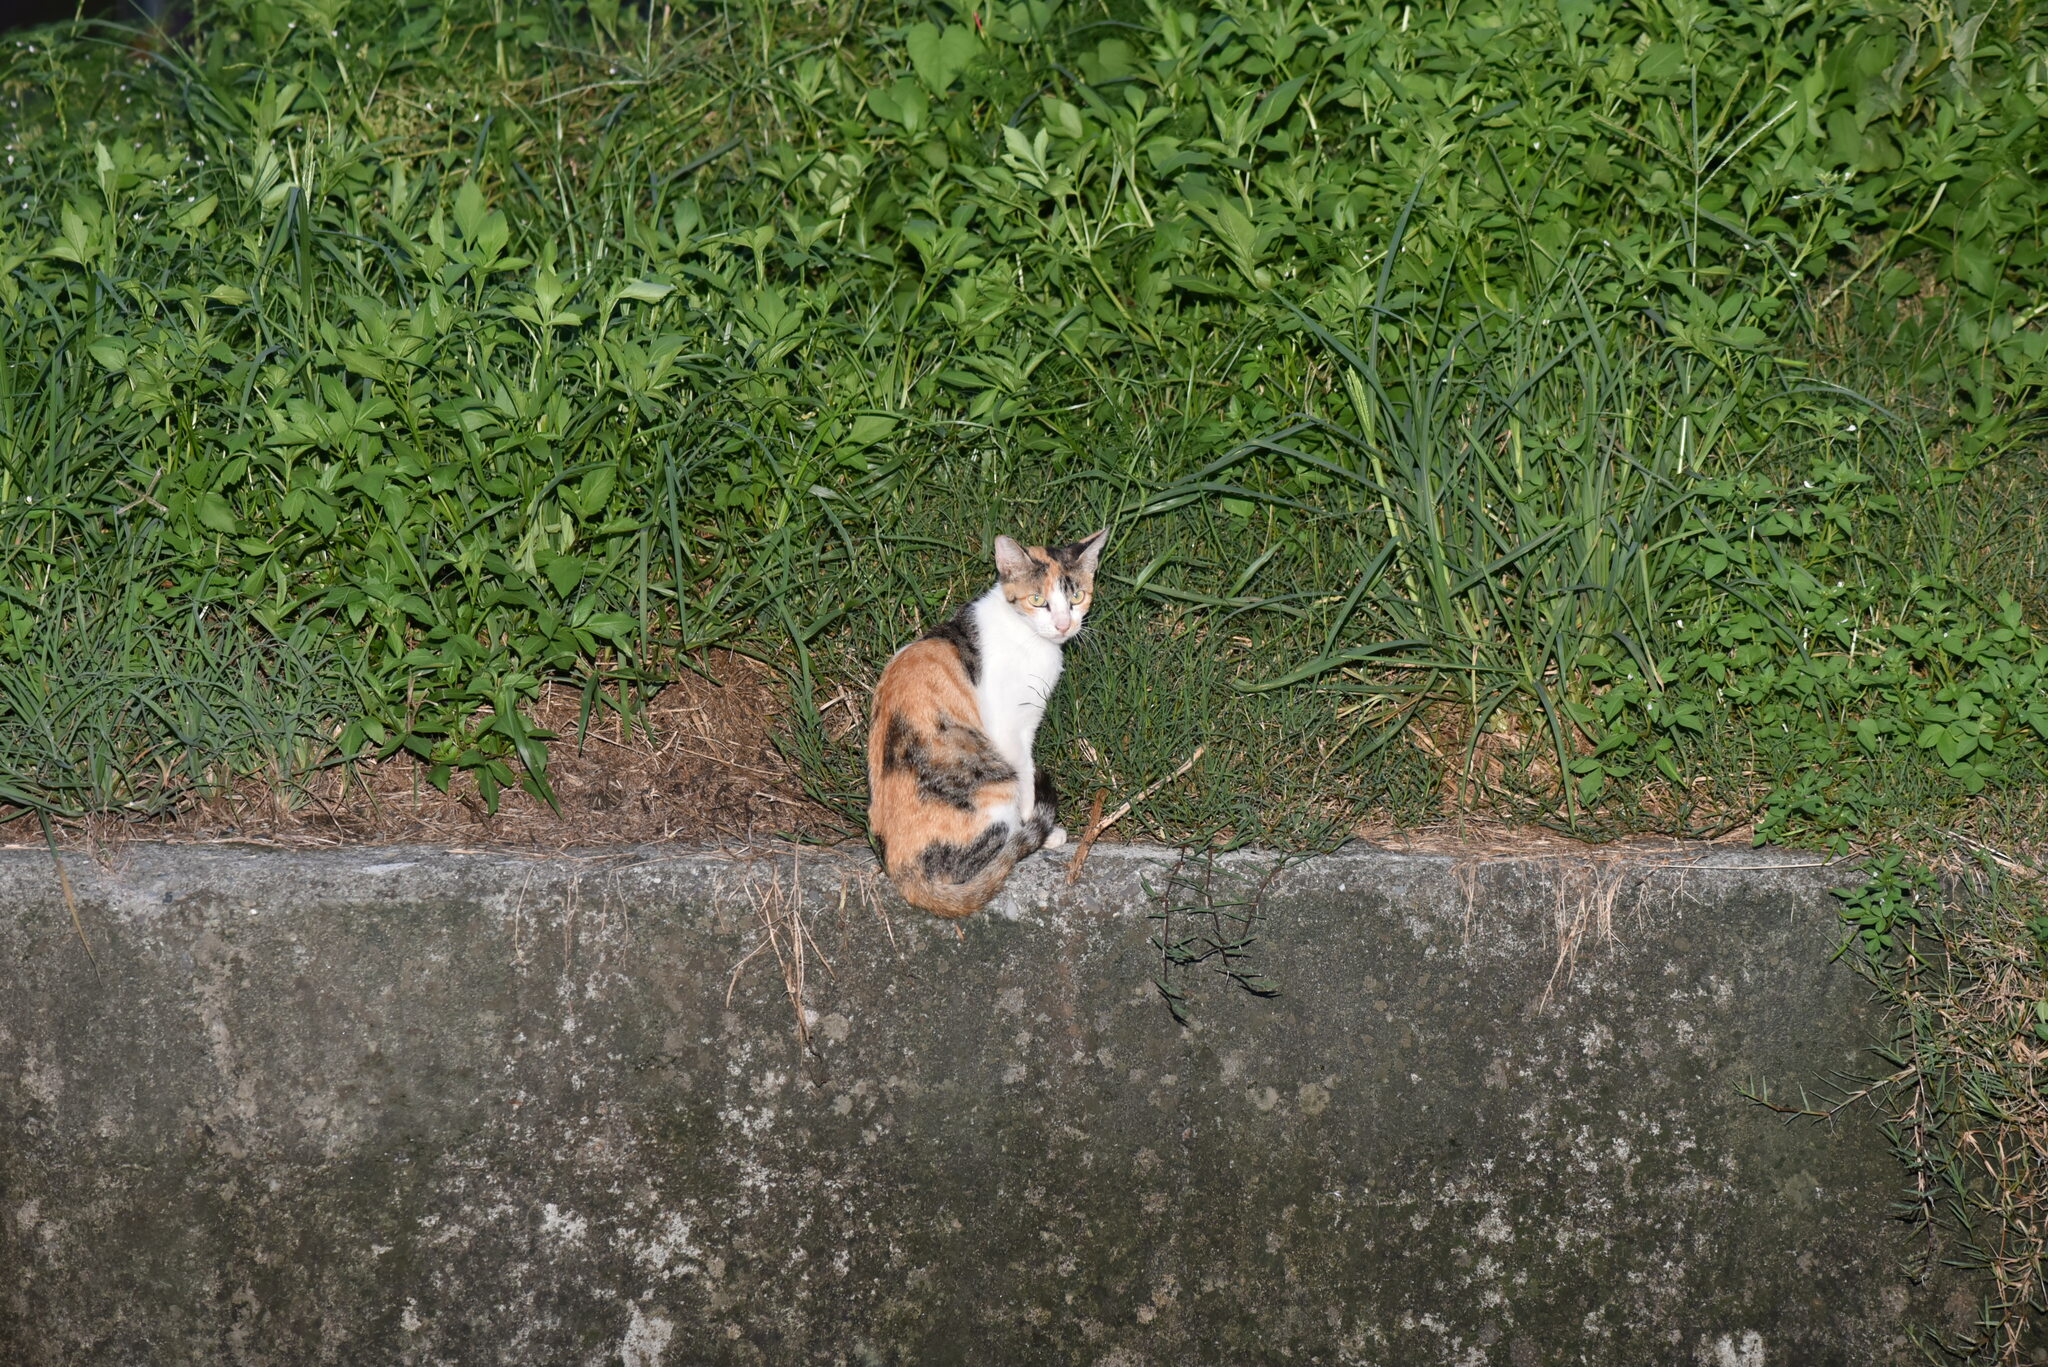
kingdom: Animalia
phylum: Chordata
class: Mammalia
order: Carnivora
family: Felidae
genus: Felis
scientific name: Felis catus
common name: Domestic cat
